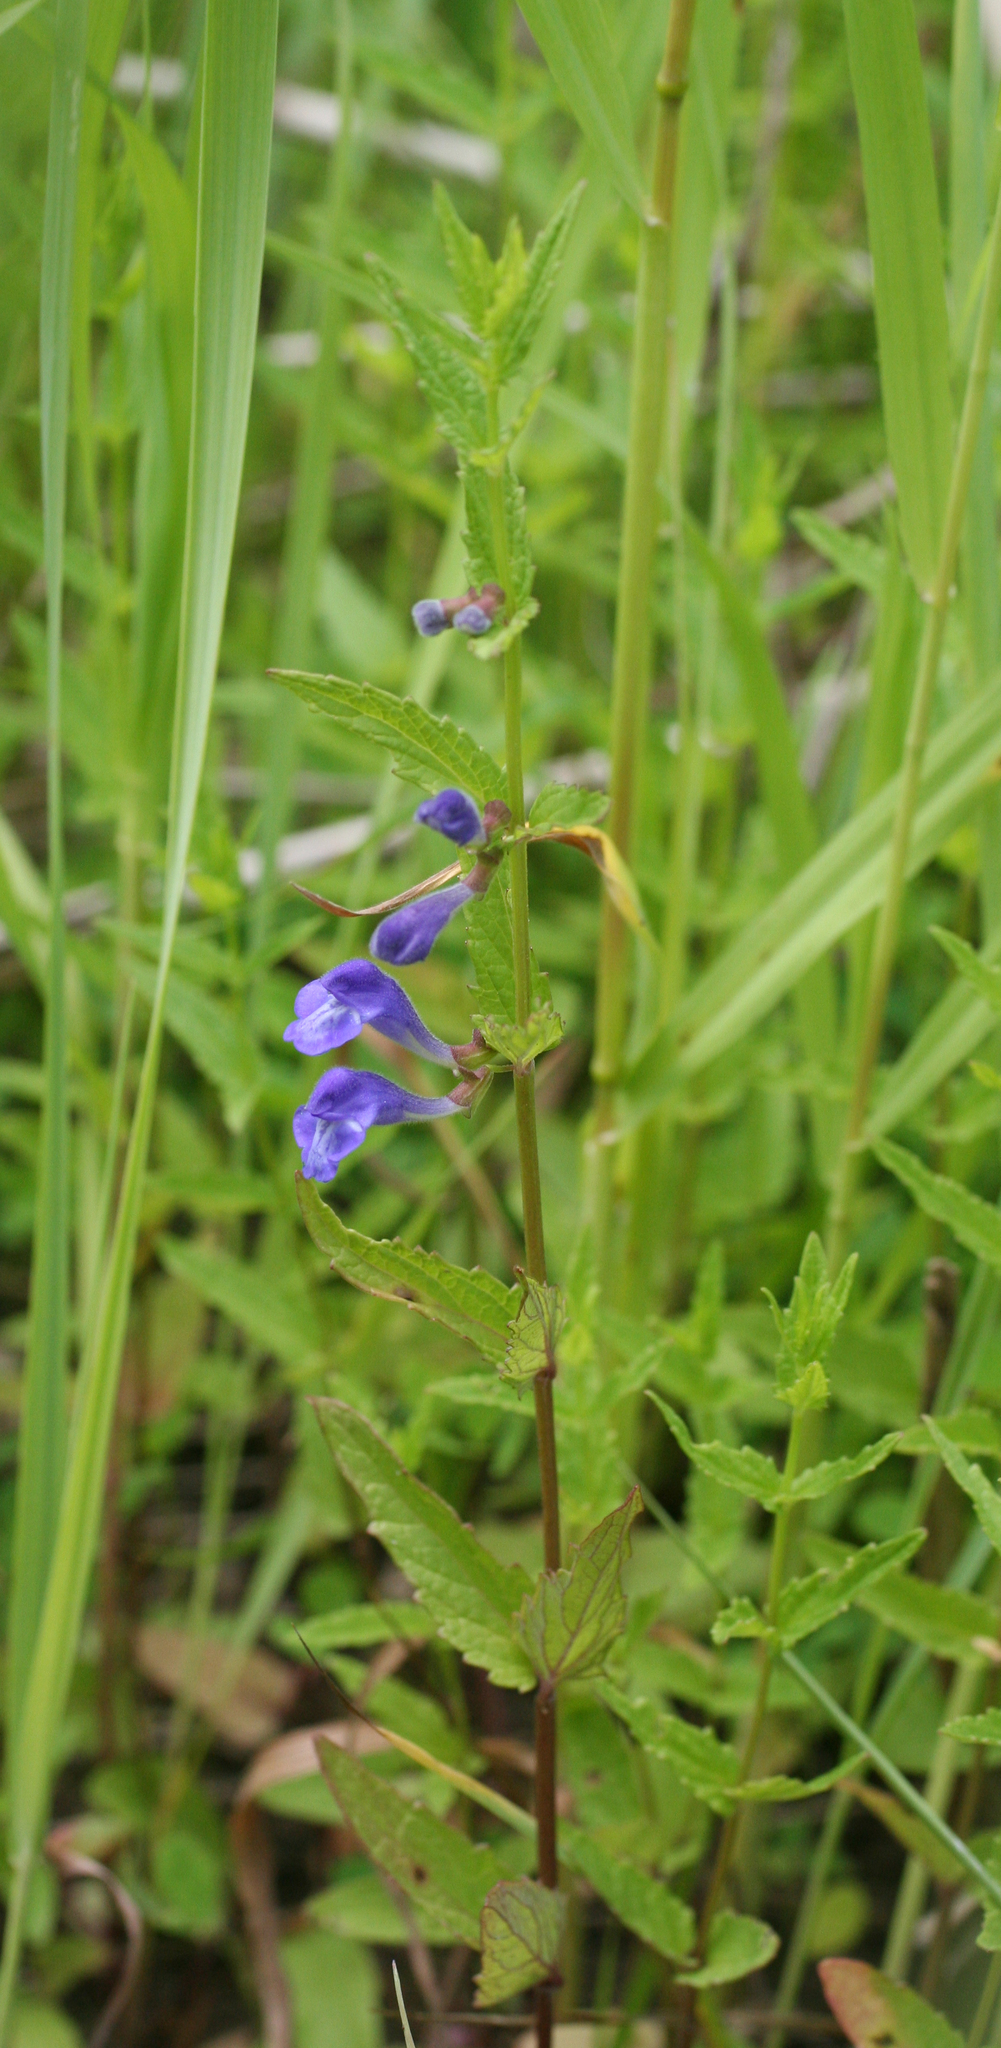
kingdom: Plantae
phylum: Tracheophyta
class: Magnoliopsida
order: Lamiales
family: Lamiaceae
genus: Scutellaria
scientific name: Scutellaria galericulata
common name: Skullcap
